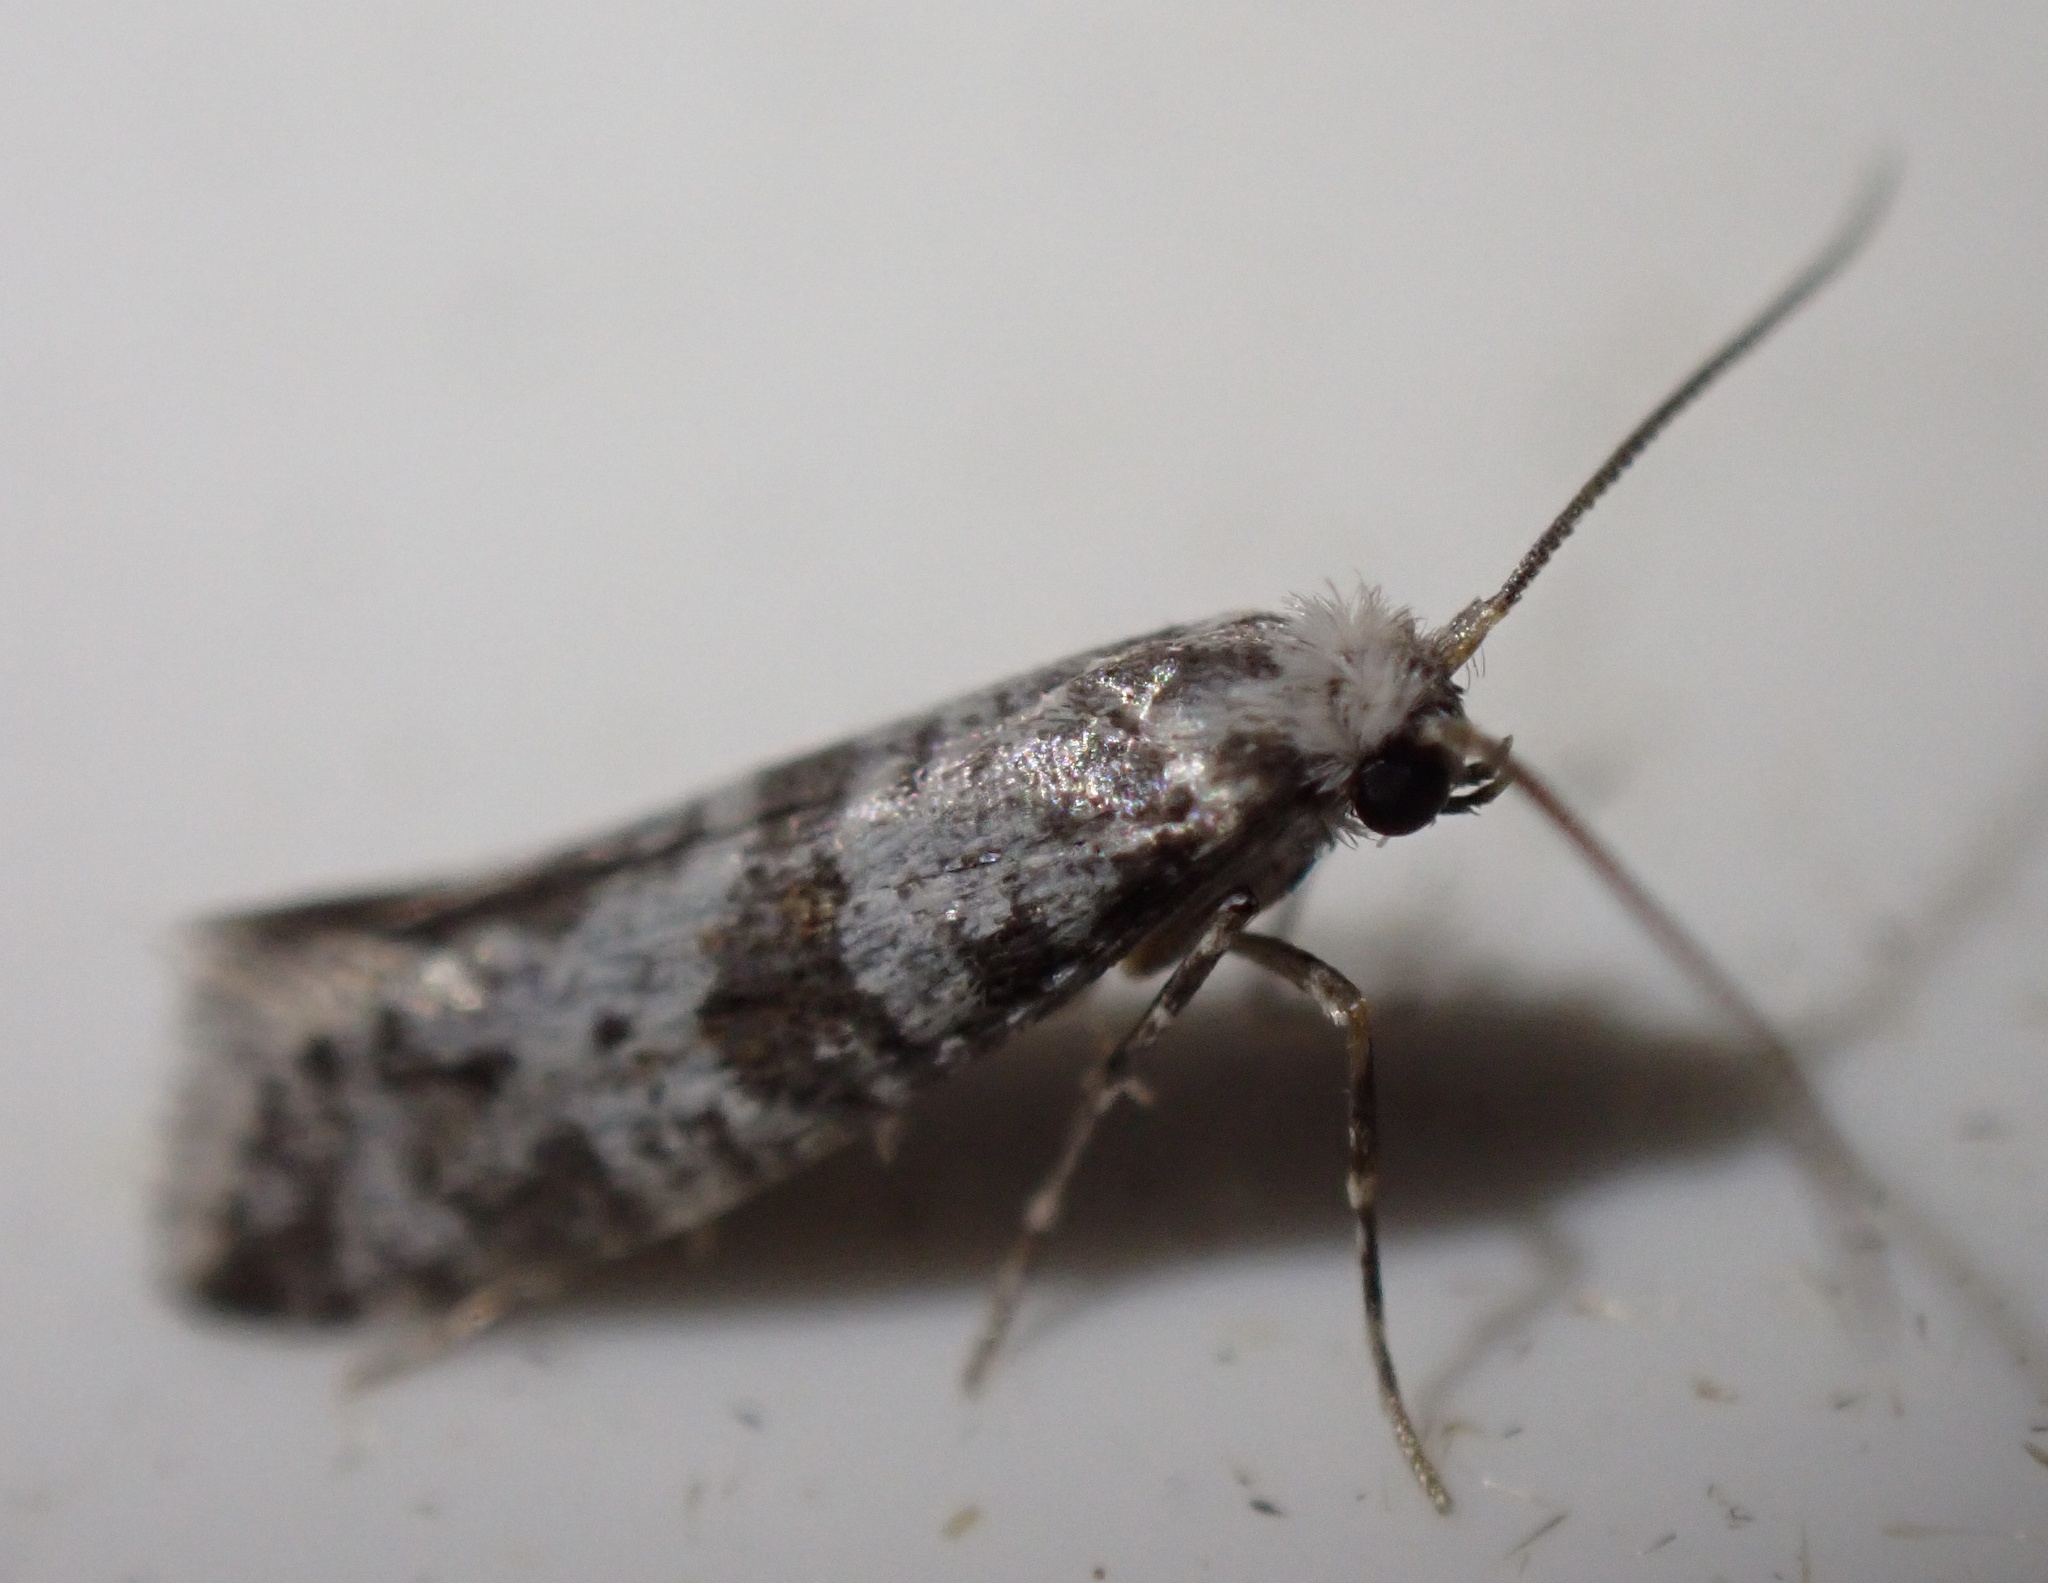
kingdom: Animalia
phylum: Arthropoda
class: Insecta
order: Lepidoptera
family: Yponomeutidae
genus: Scythropia
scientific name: Scythropia crataegella
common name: Hawthorn moth
